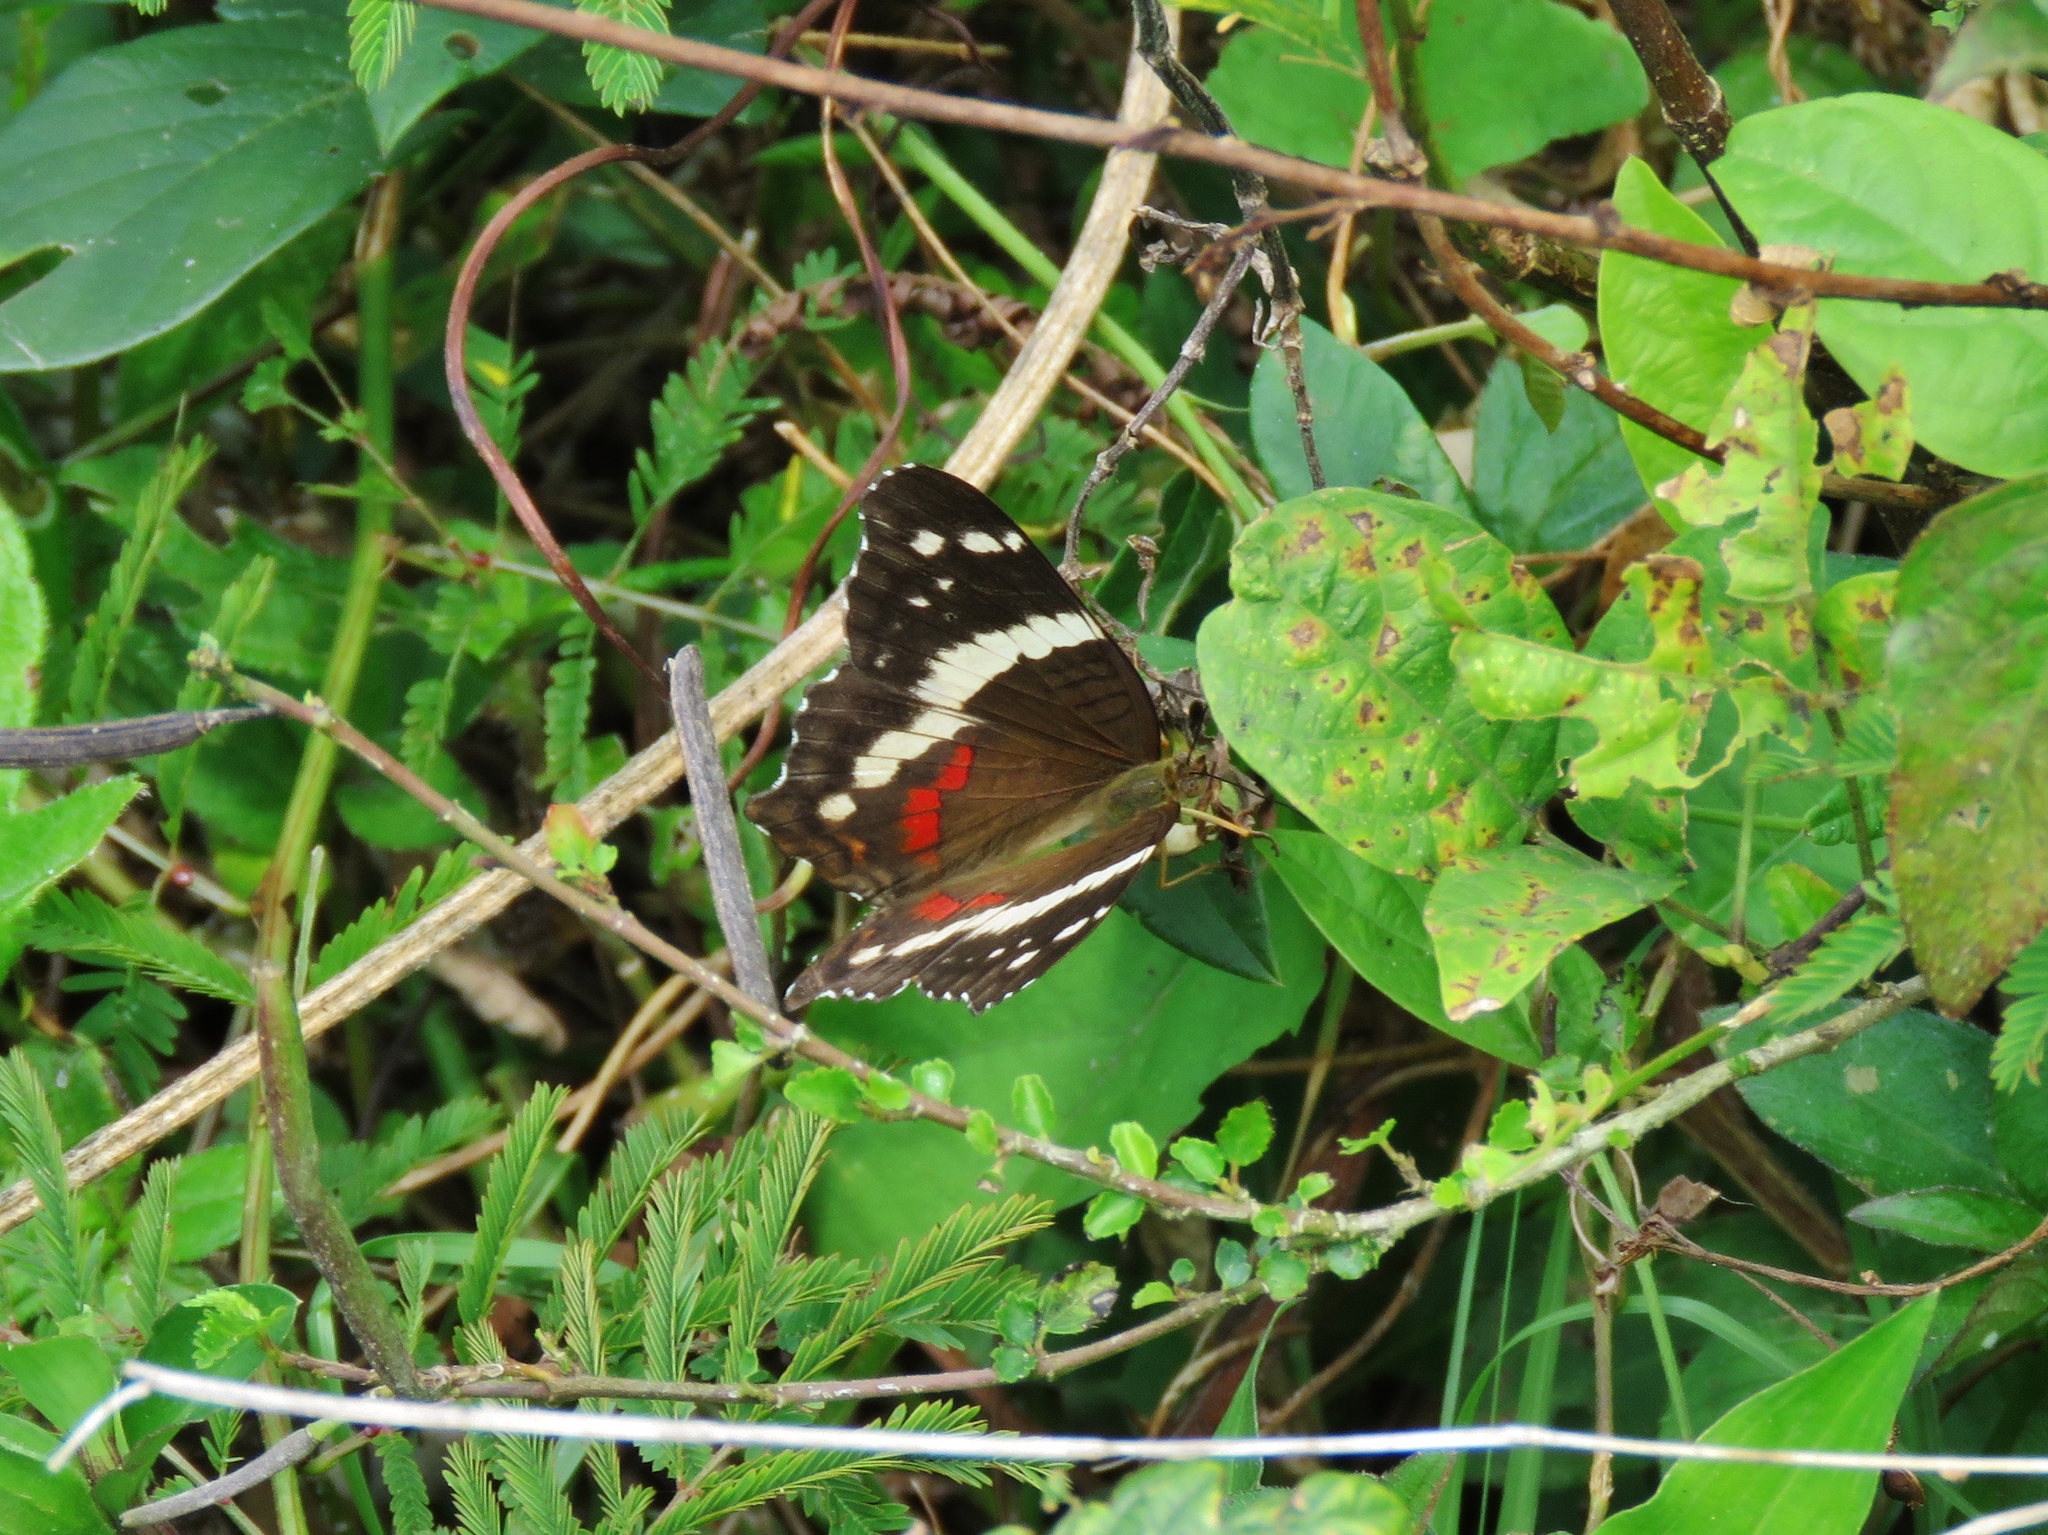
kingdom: Animalia
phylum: Arthropoda
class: Insecta
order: Lepidoptera
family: Nymphalidae
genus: Anartia
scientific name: Anartia fatima
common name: Banded peacock
